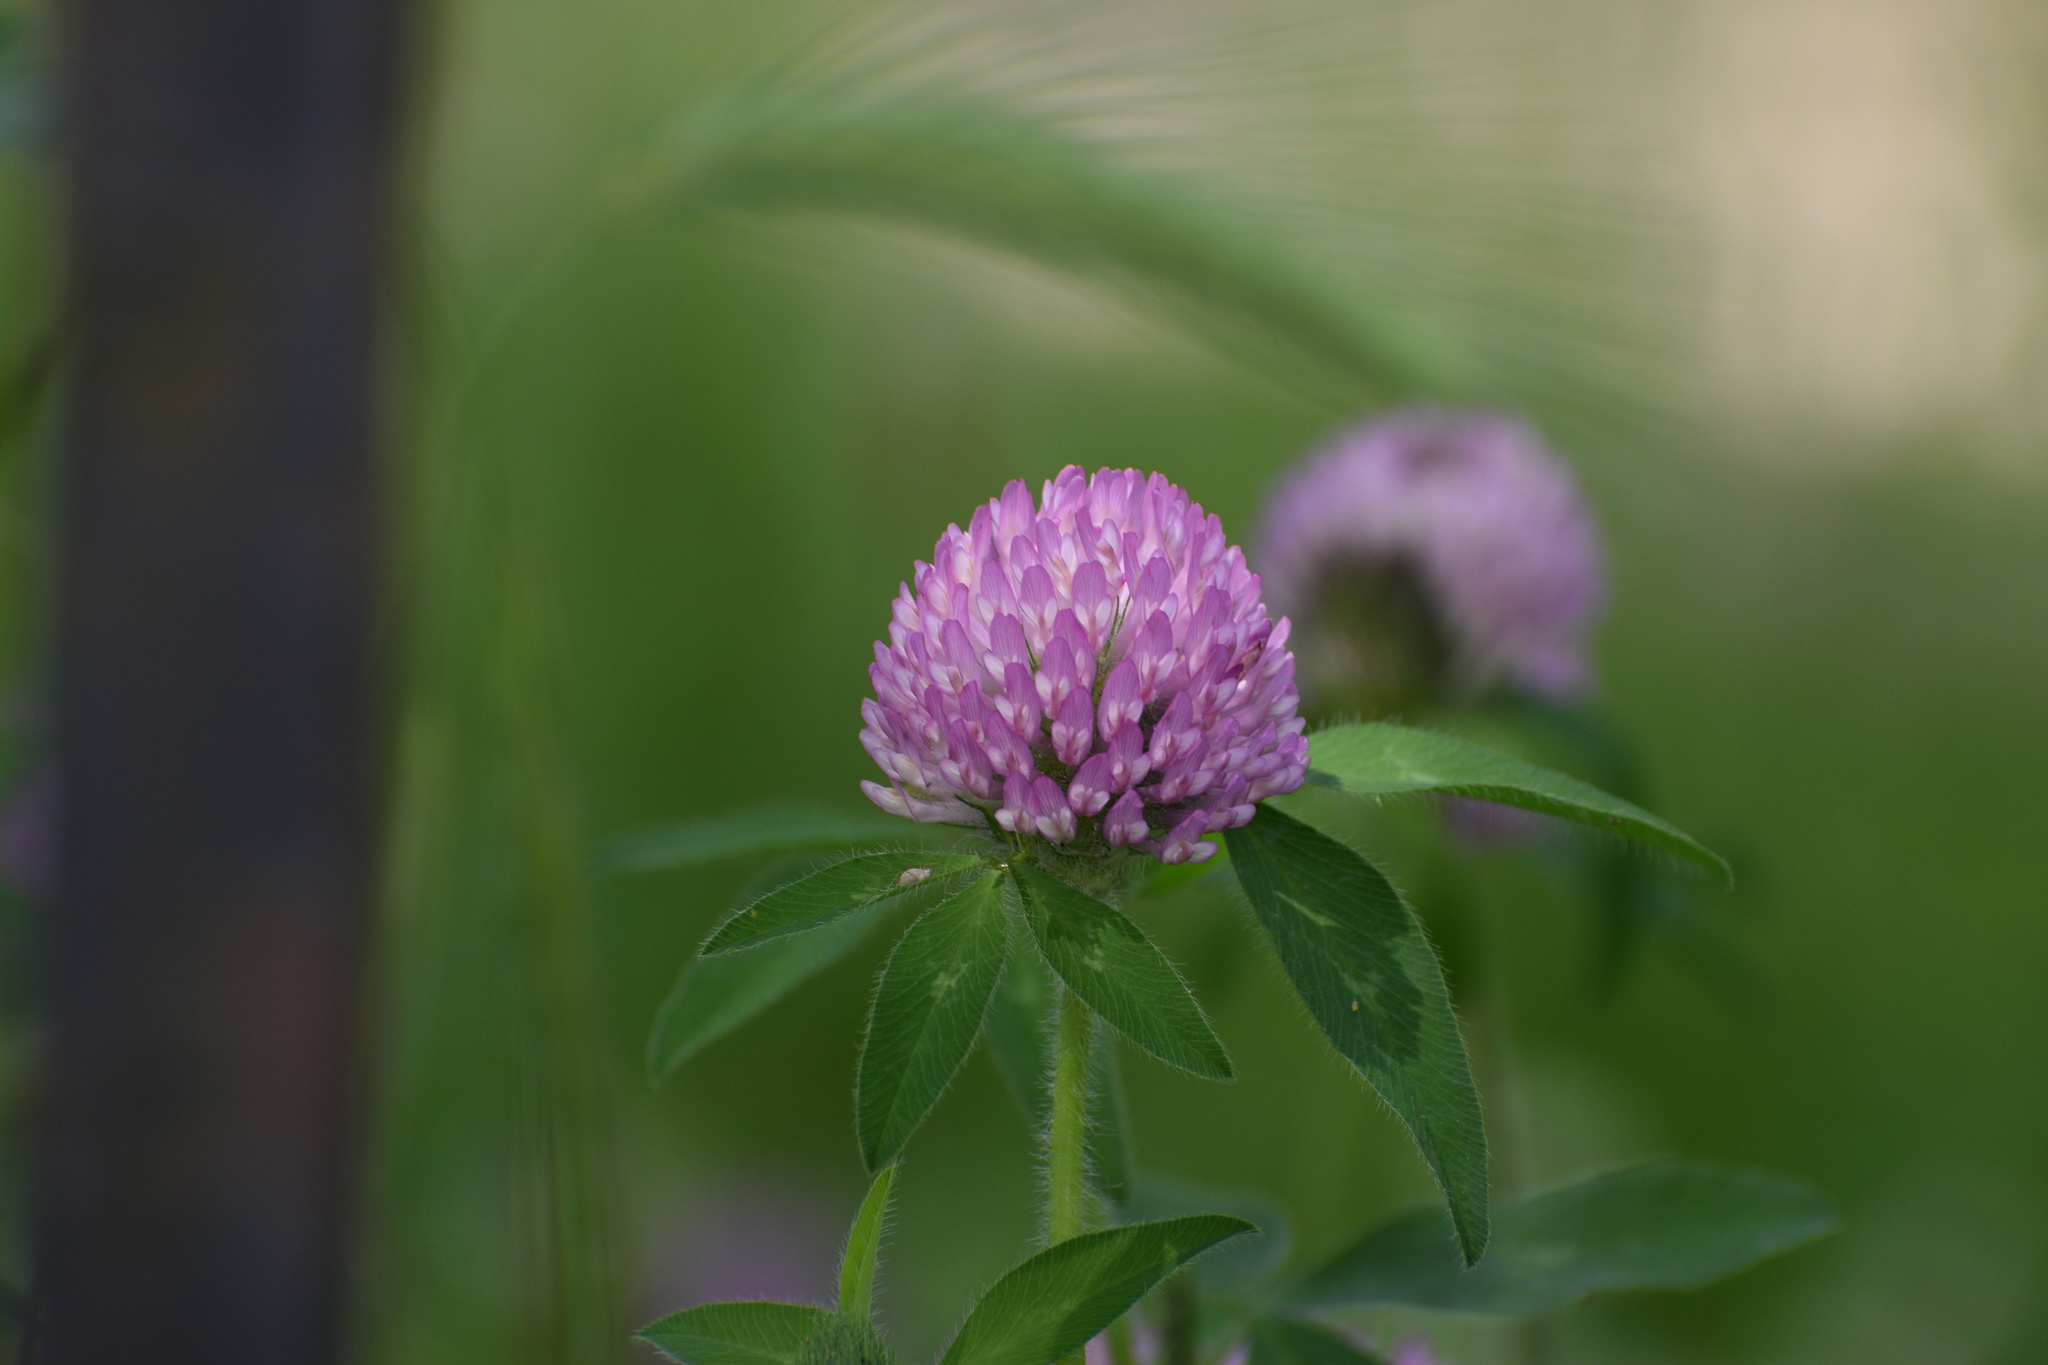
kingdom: Plantae
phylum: Tracheophyta
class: Magnoliopsida
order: Fabales
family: Fabaceae
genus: Trifolium
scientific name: Trifolium pratense
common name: Red clover
